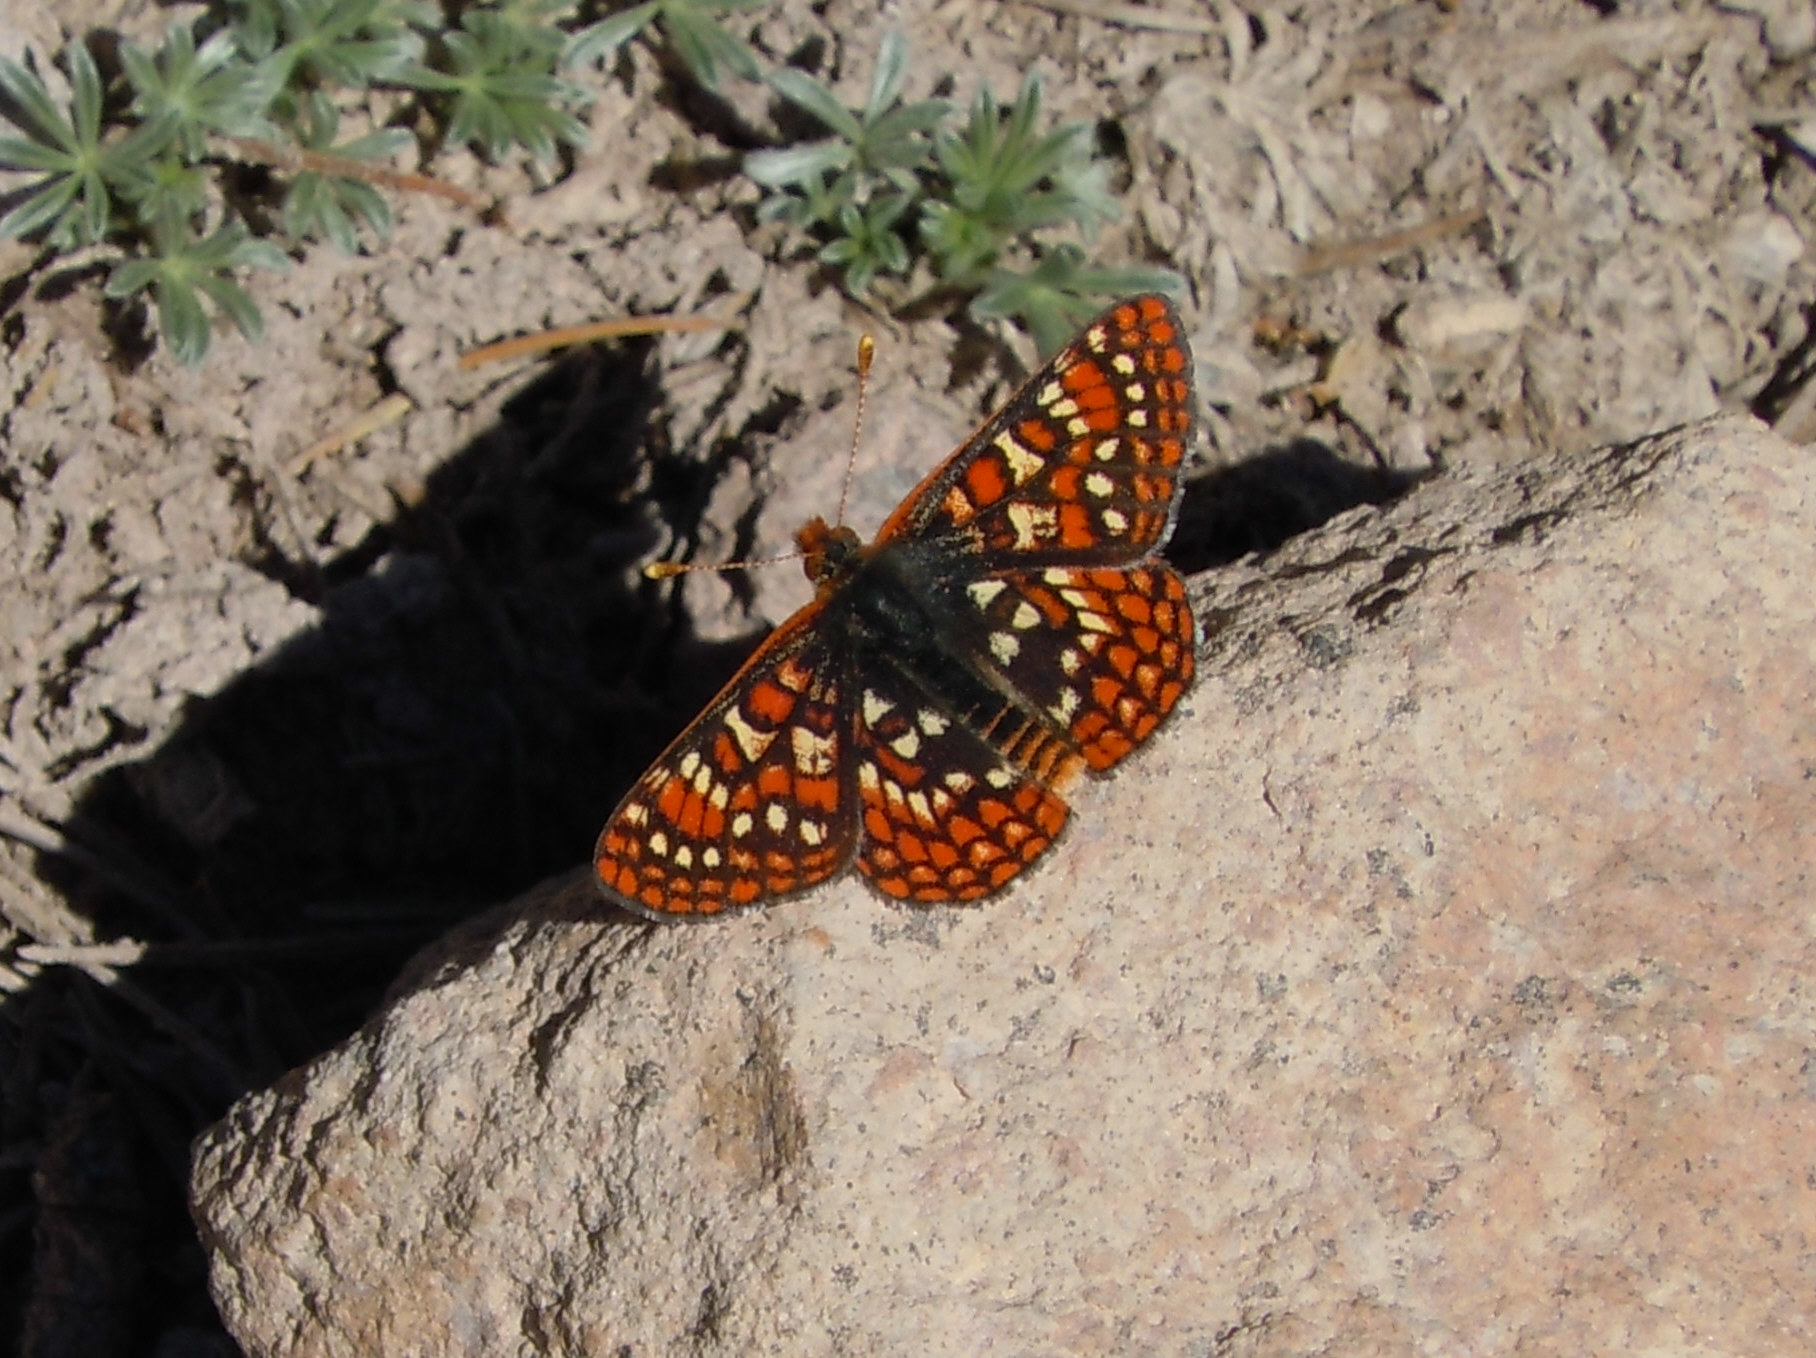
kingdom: Animalia
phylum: Arthropoda
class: Insecta
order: Lepidoptera
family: Nymphalidae
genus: Occidryas
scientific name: Occidryas editha
